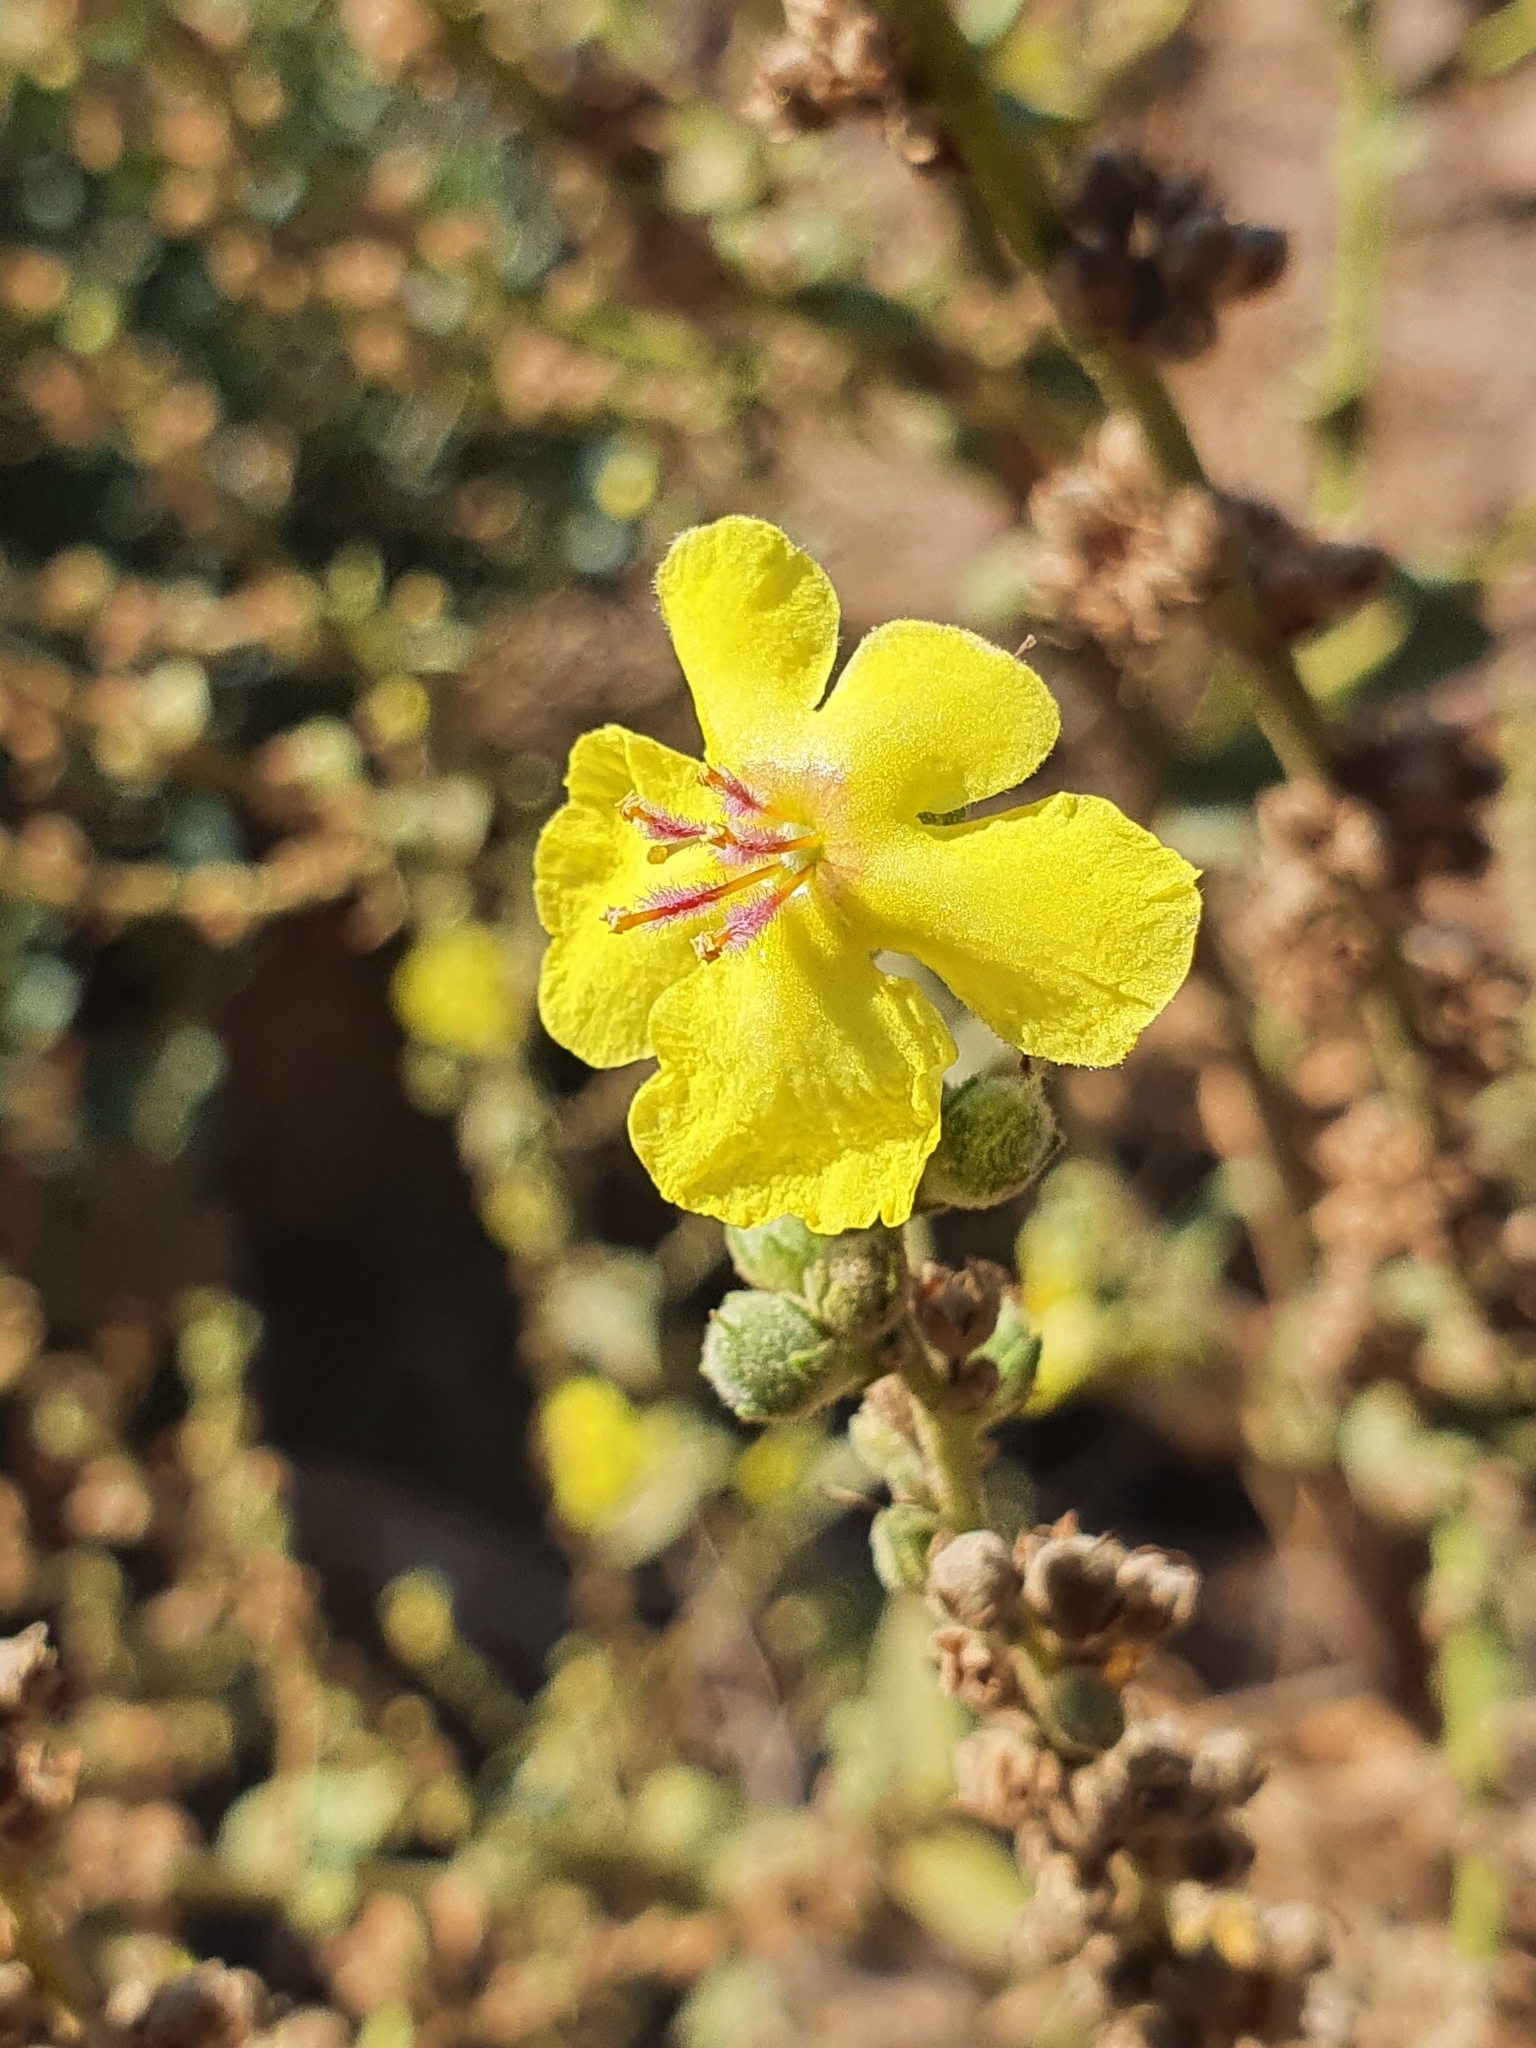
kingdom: Plantae
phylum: Tracheophyta
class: Magnoliopsida
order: Lamiales
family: Scrophulariaceae
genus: Verbascum
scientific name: Verbascum sinuatum
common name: Wavyleaf mullein
